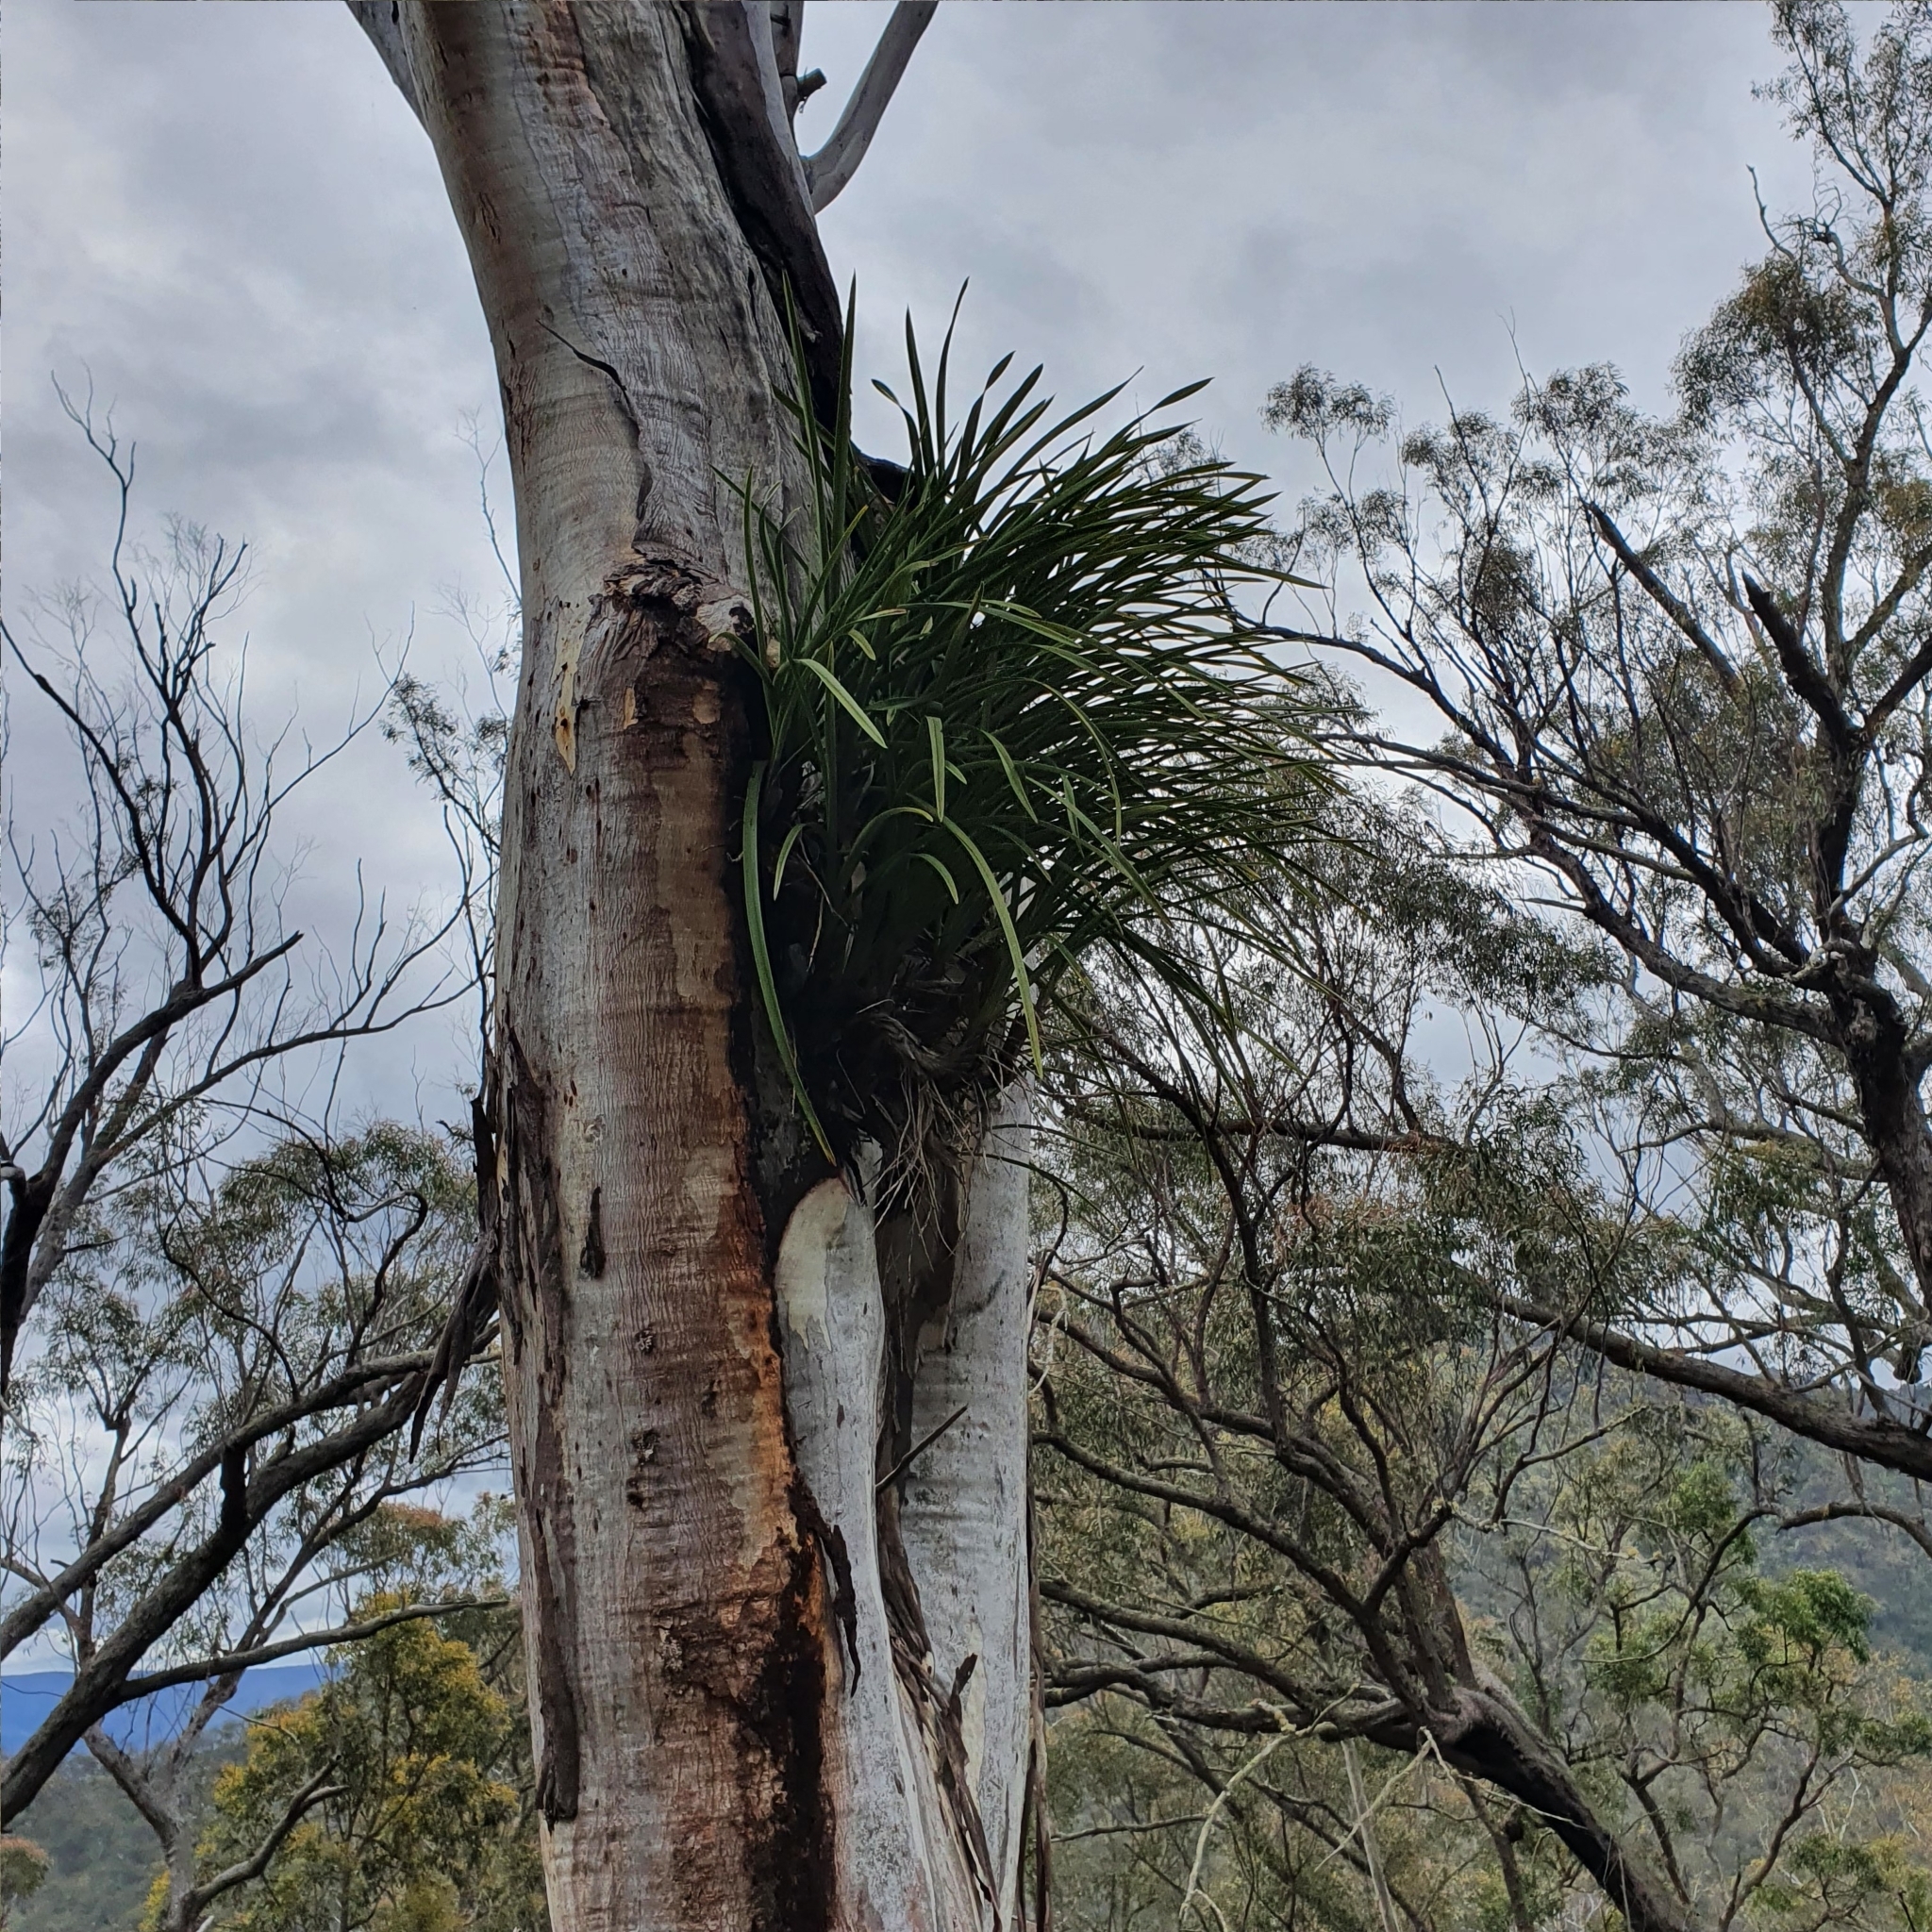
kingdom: Plantae
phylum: Tracheophyta
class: Liliopsida
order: Asparagales
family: Orchidaceae
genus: Cymbidium
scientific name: Cymbidium suave
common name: Snake orchid
